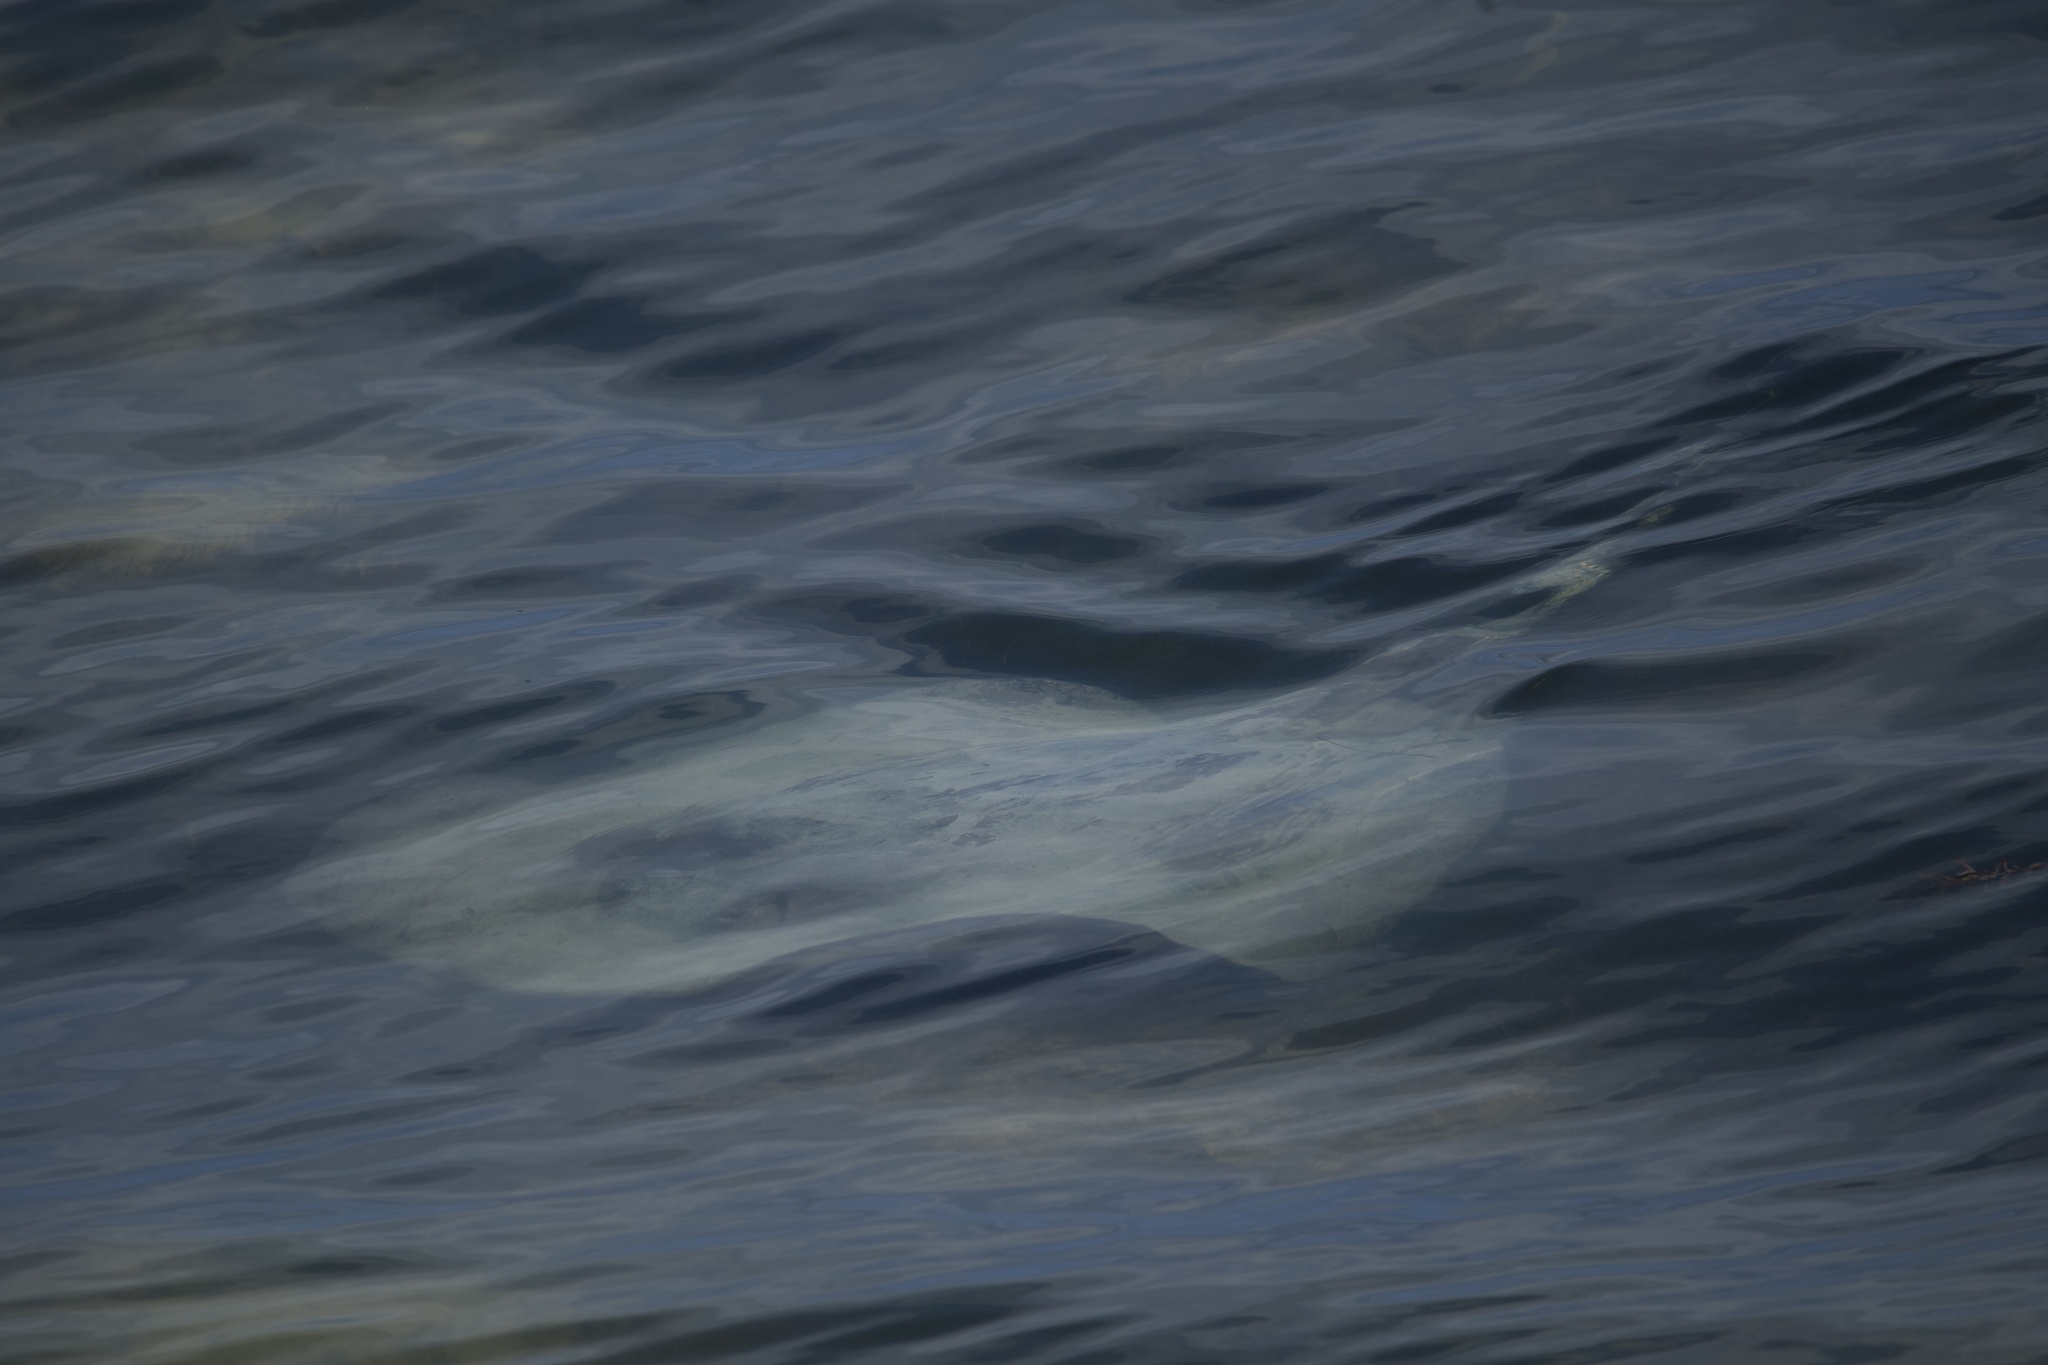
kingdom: Animalia
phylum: Chordata
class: Elasmobranchii
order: Myliobatiformes
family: Potamotrygonidae
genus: Styracura
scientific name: Styracura schmardae
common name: Atlantic chupare
